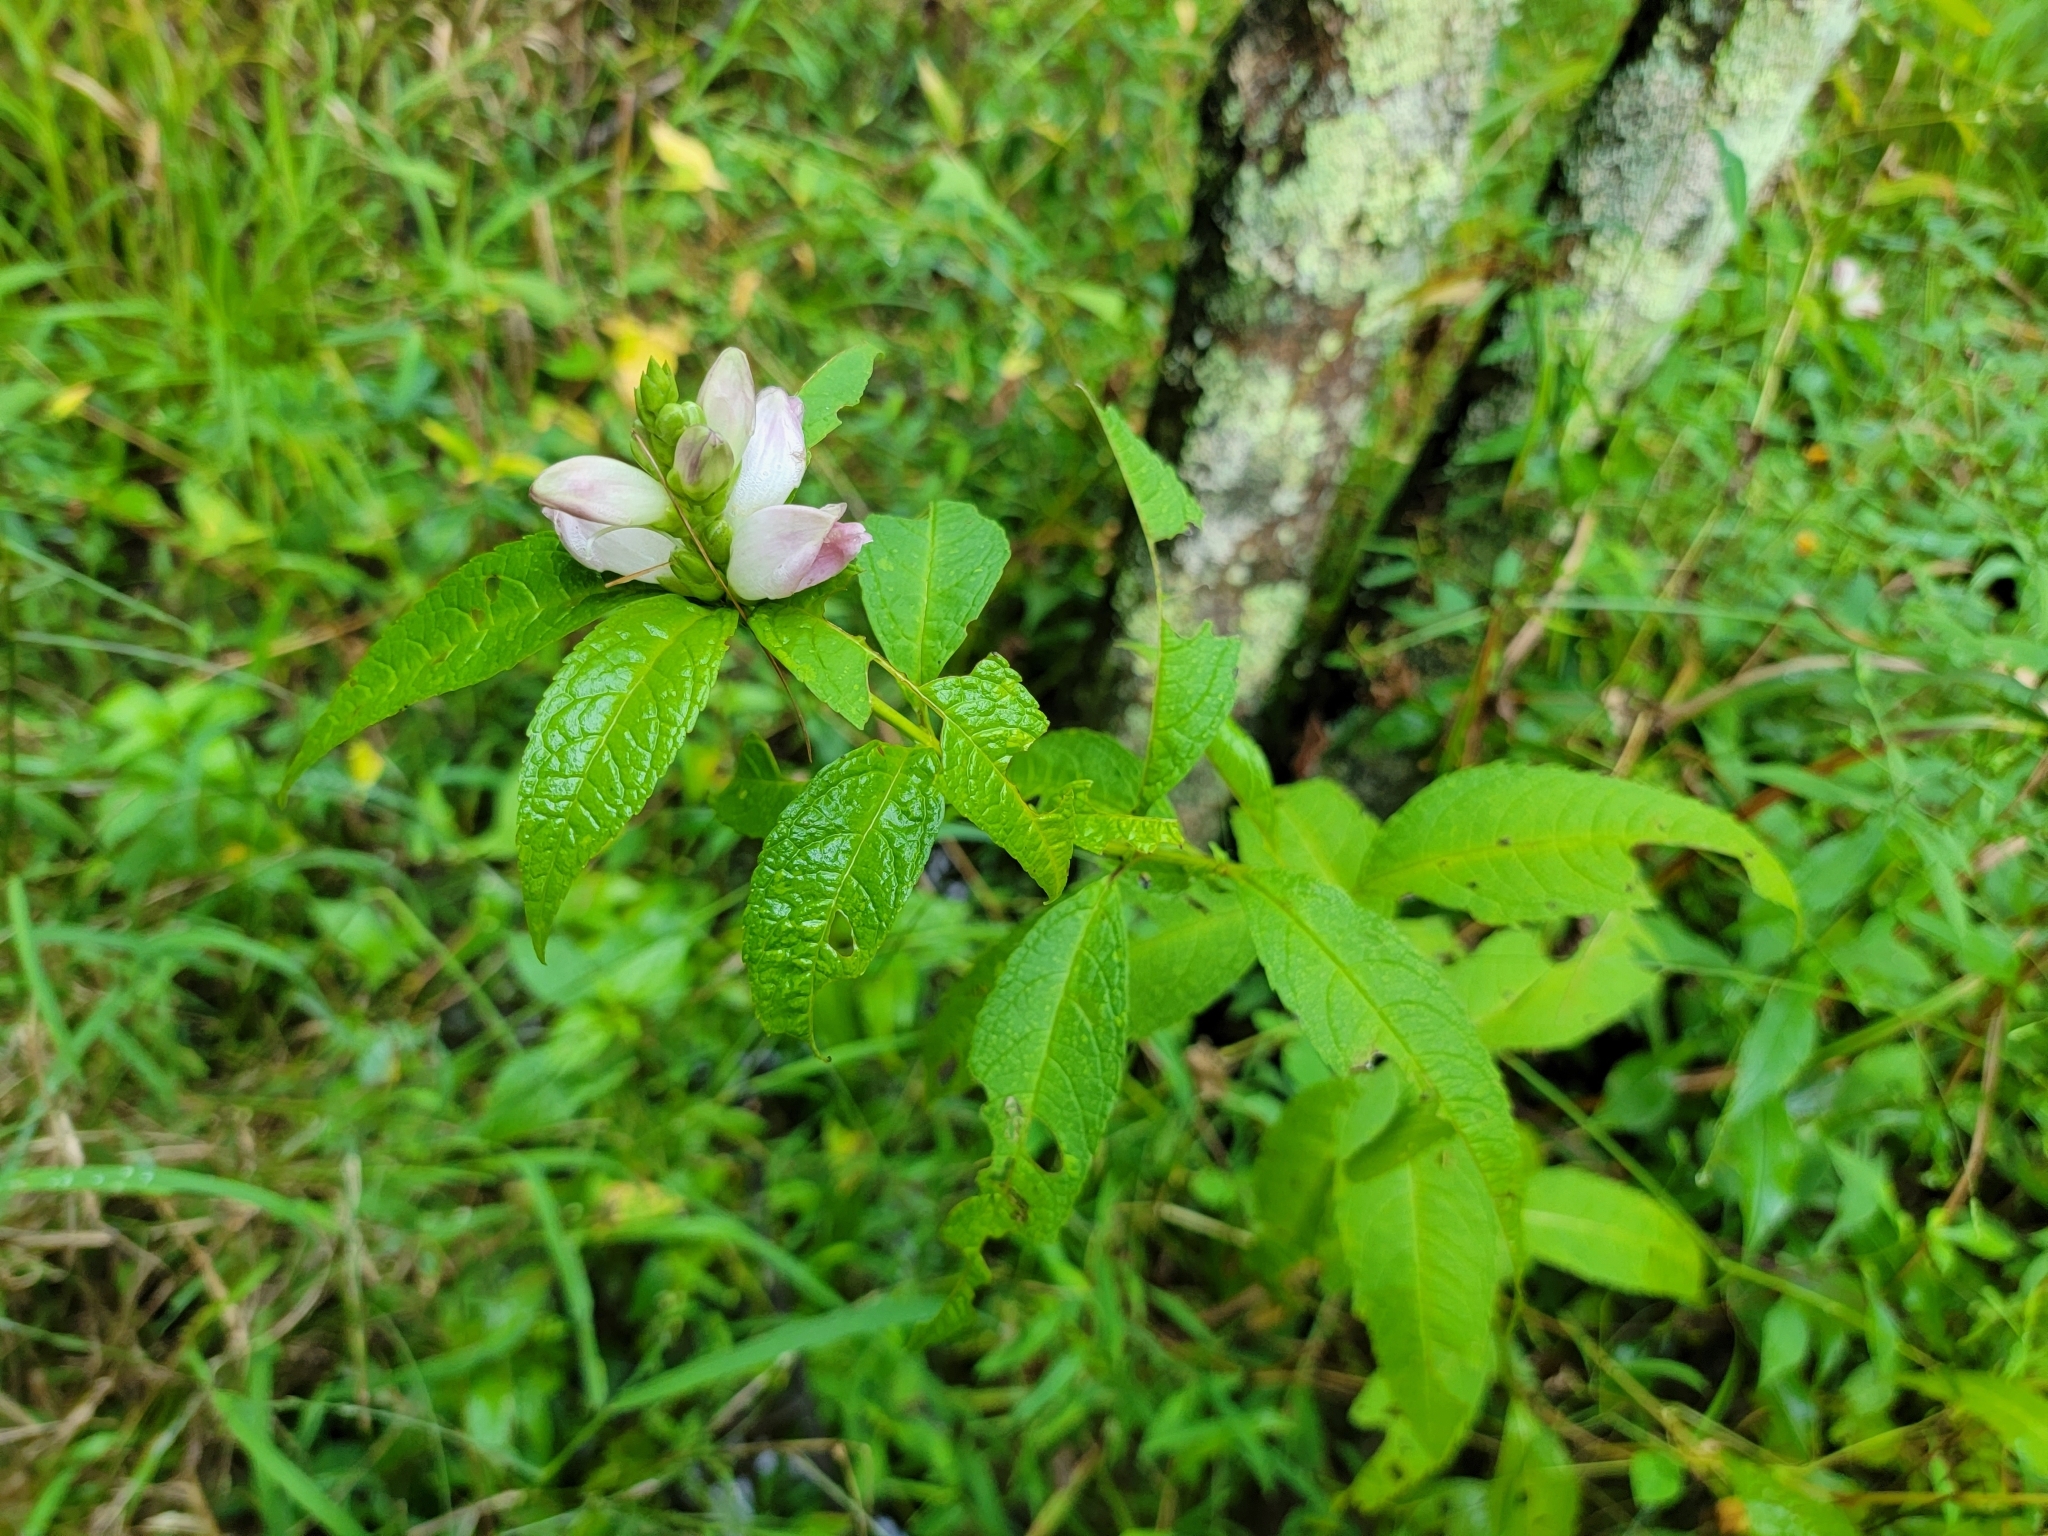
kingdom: Plantae
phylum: Tracheophyta
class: Magnoliopsida
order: Lamiales
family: Plantaginaceae
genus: Chelone
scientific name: Chelone glabra
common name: Snakehead
